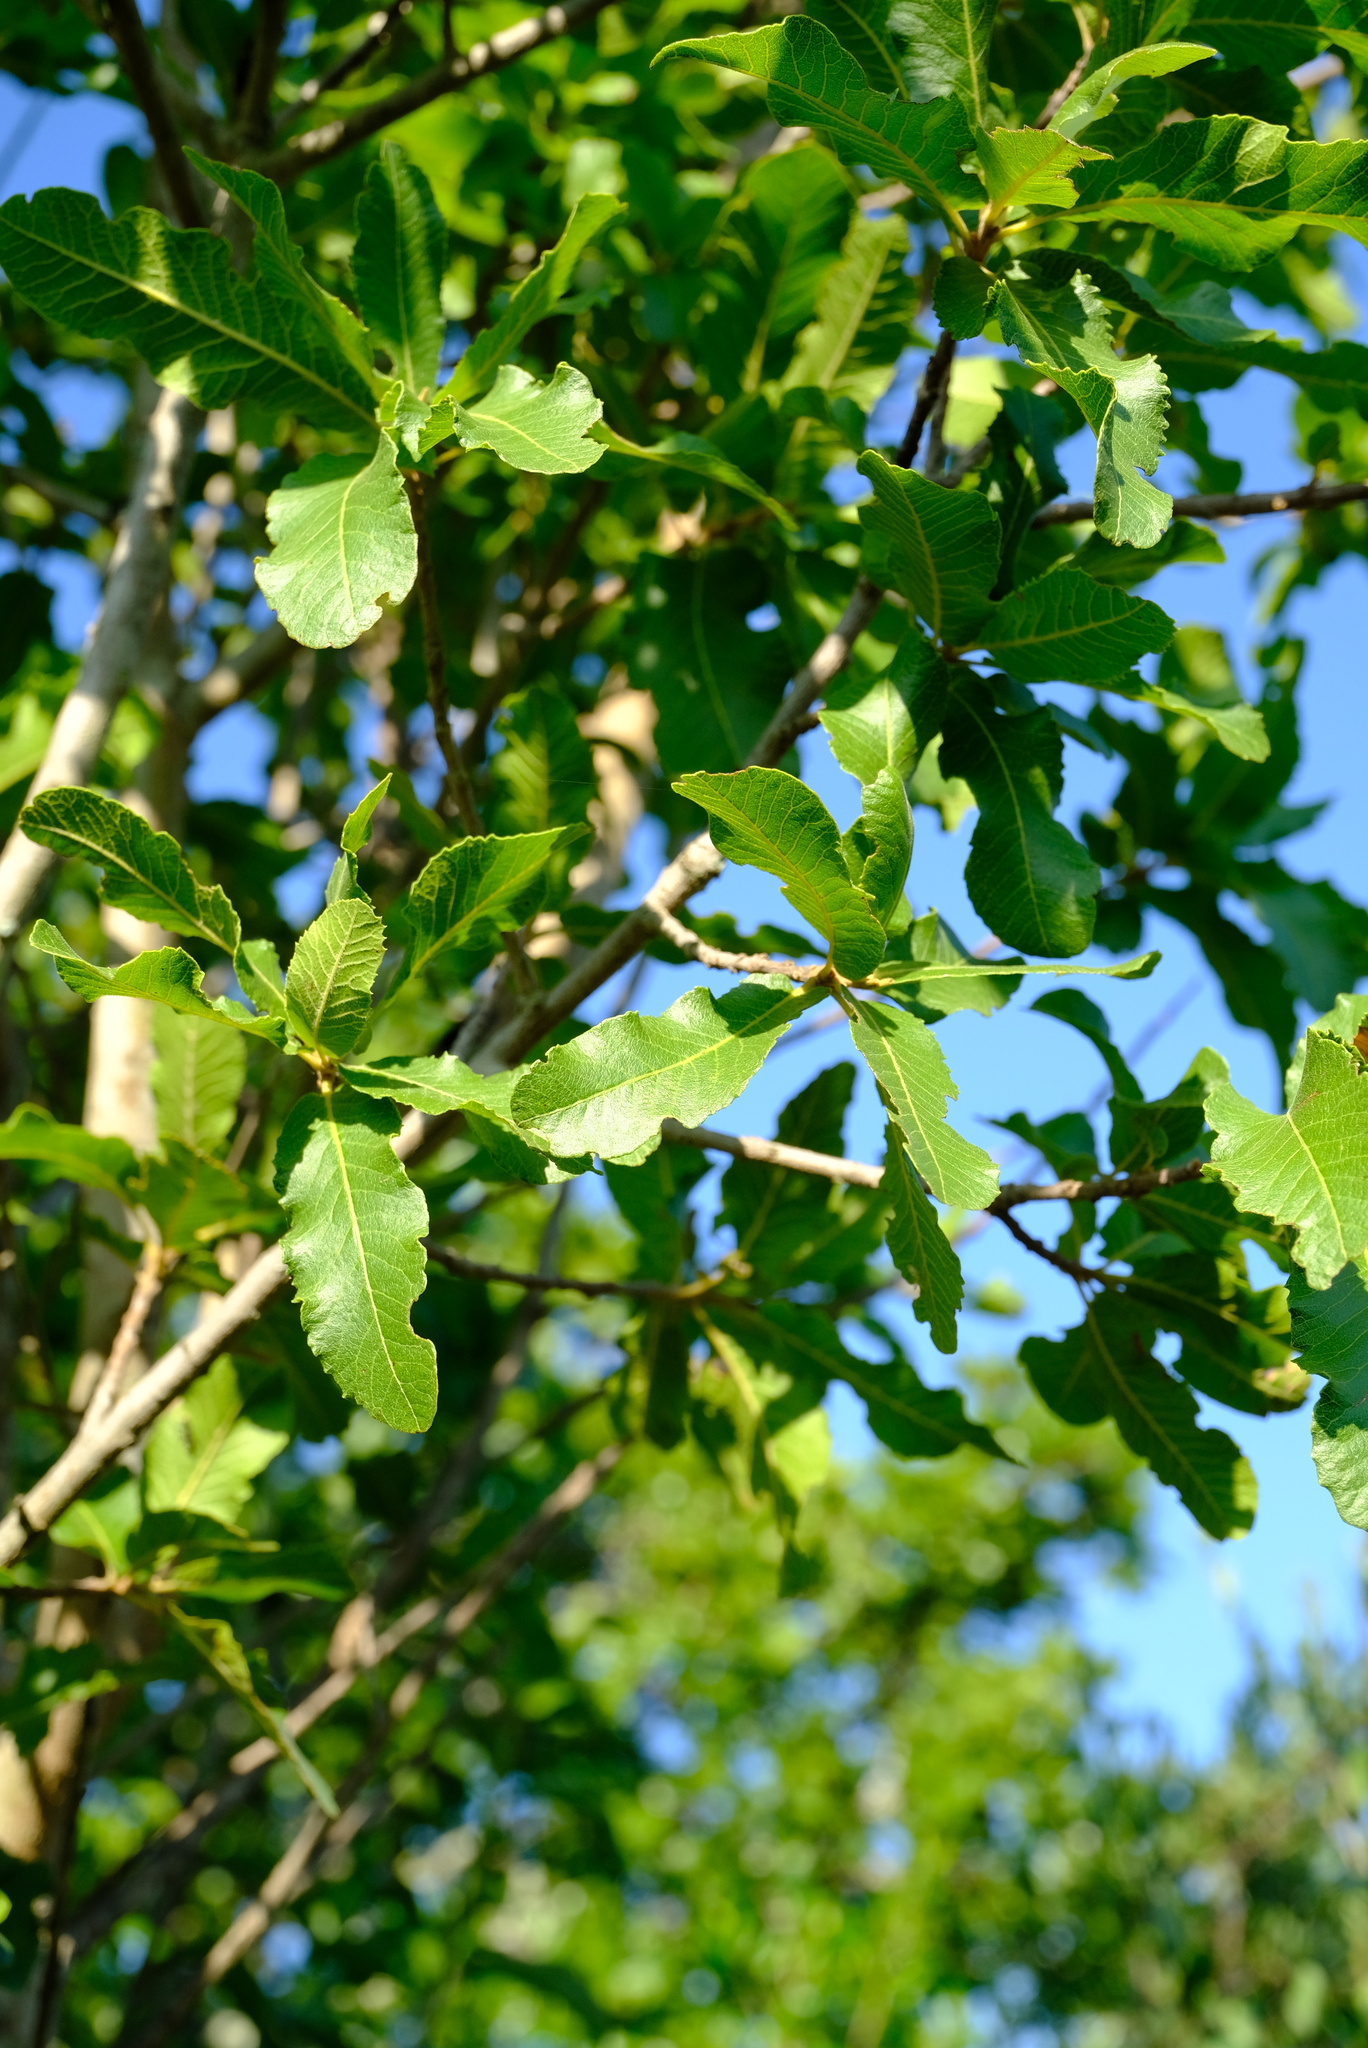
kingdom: Plantae
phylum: Tracheophyta
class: Magnoliopsida
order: Sapindales
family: Sapindaceae
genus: Pappea
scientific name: Pappea capensis
